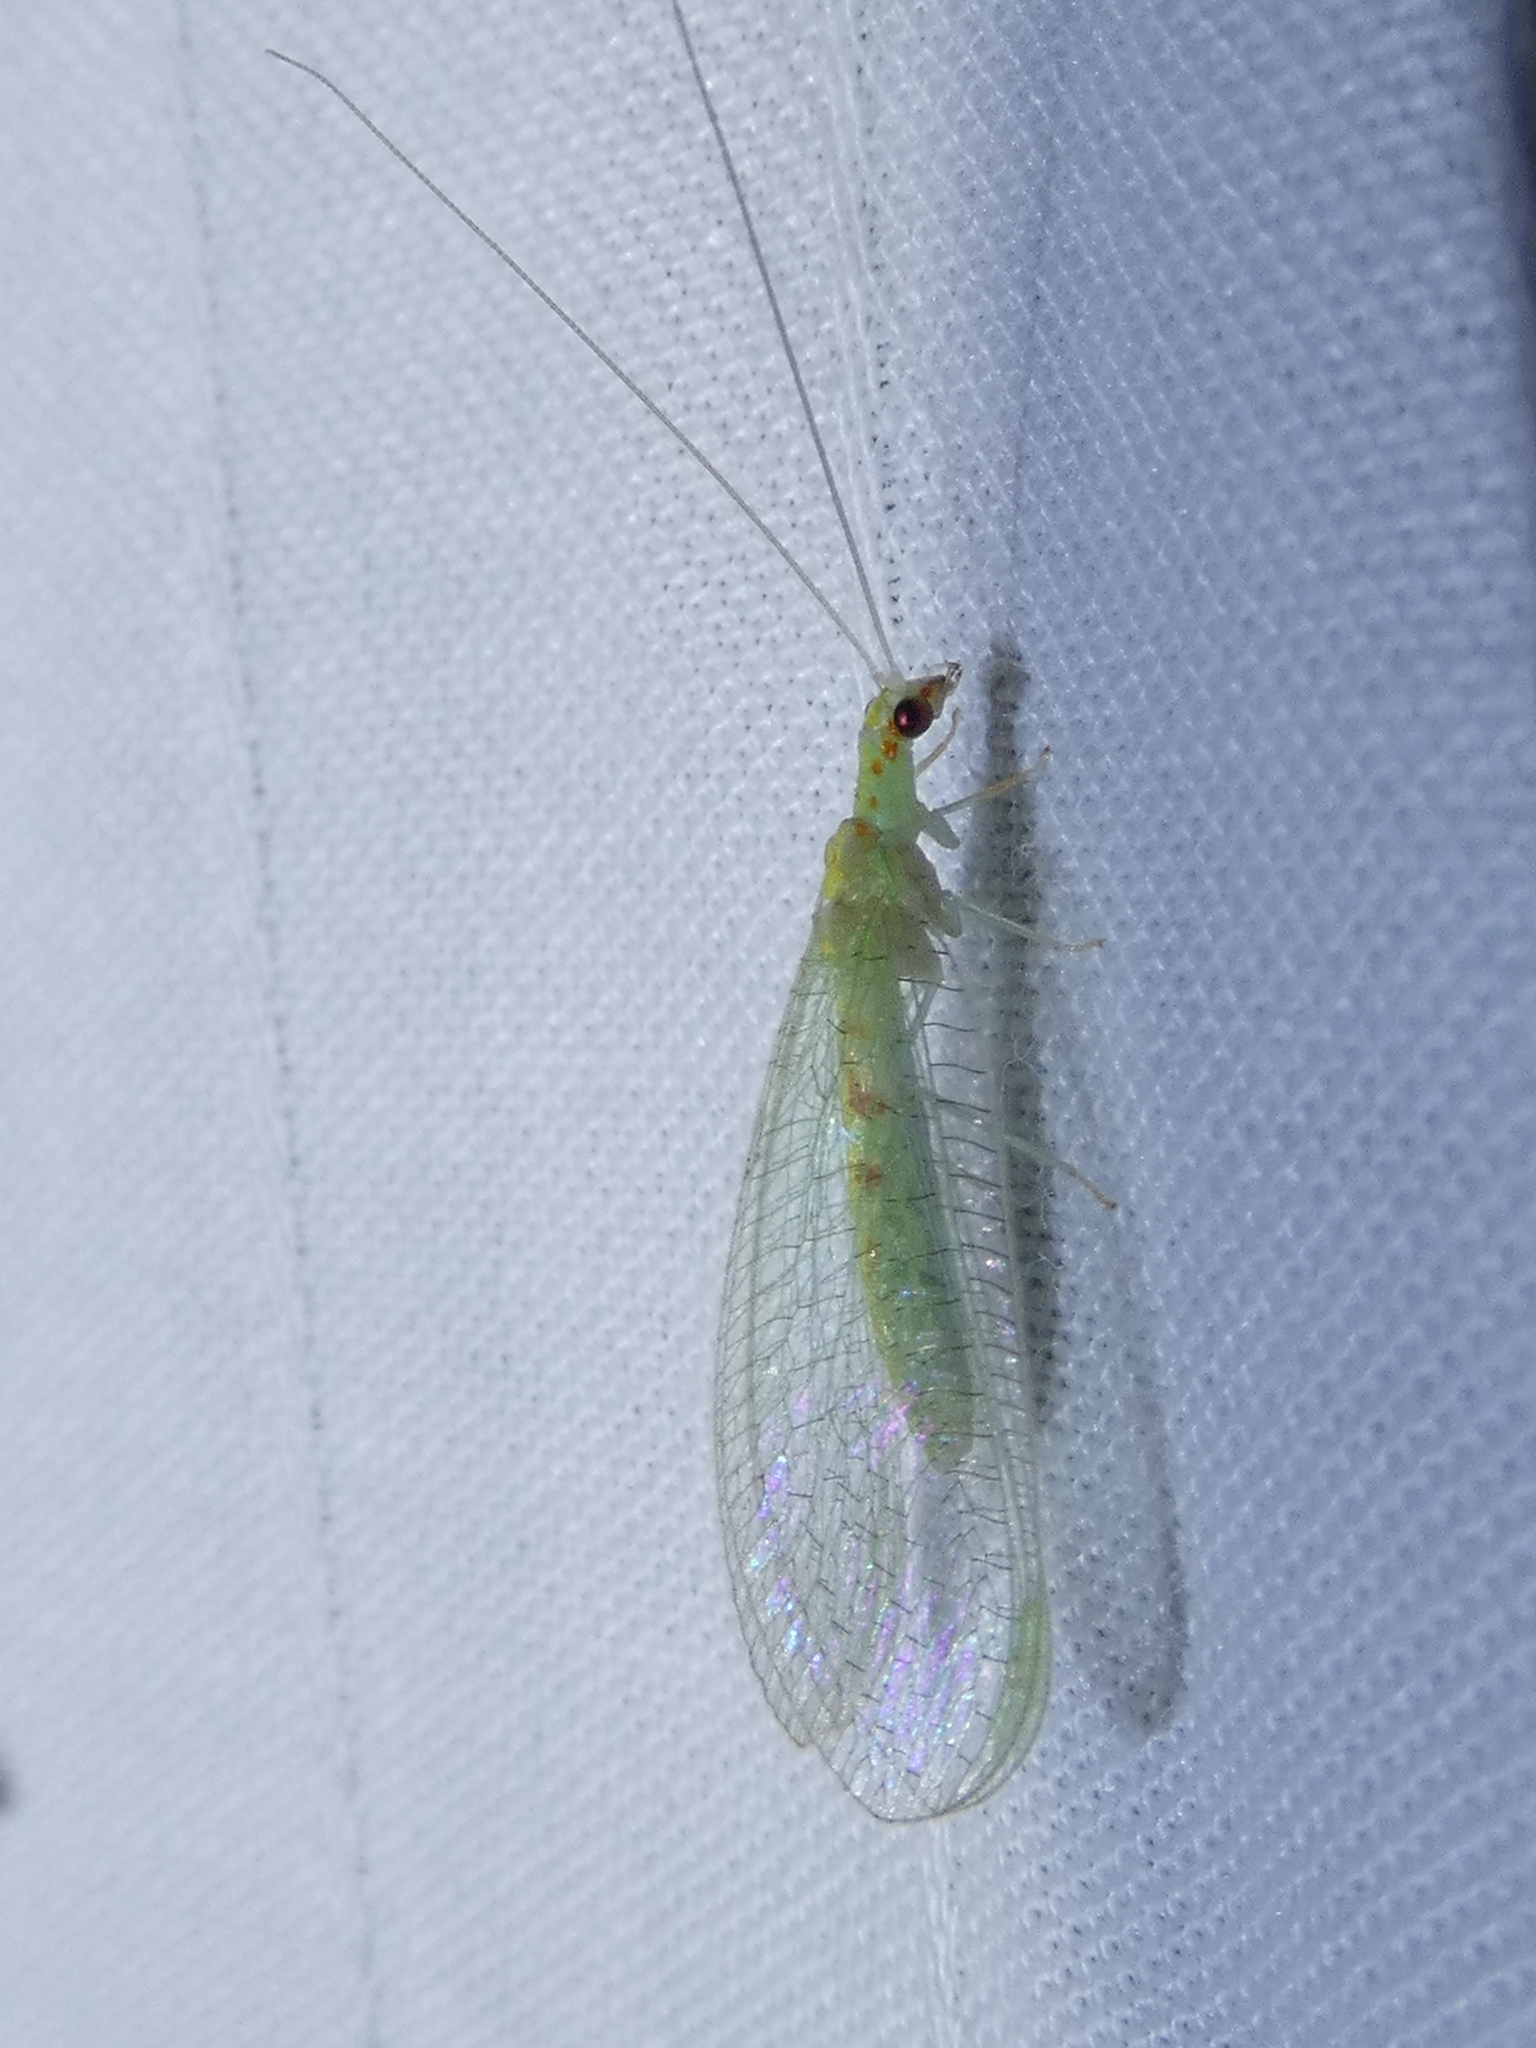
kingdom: Animalia
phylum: Arthropoda
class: Insecta
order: Neuroptera
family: Chrysopidae
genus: Chrysopa
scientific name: Chrysopa quadripunctata
